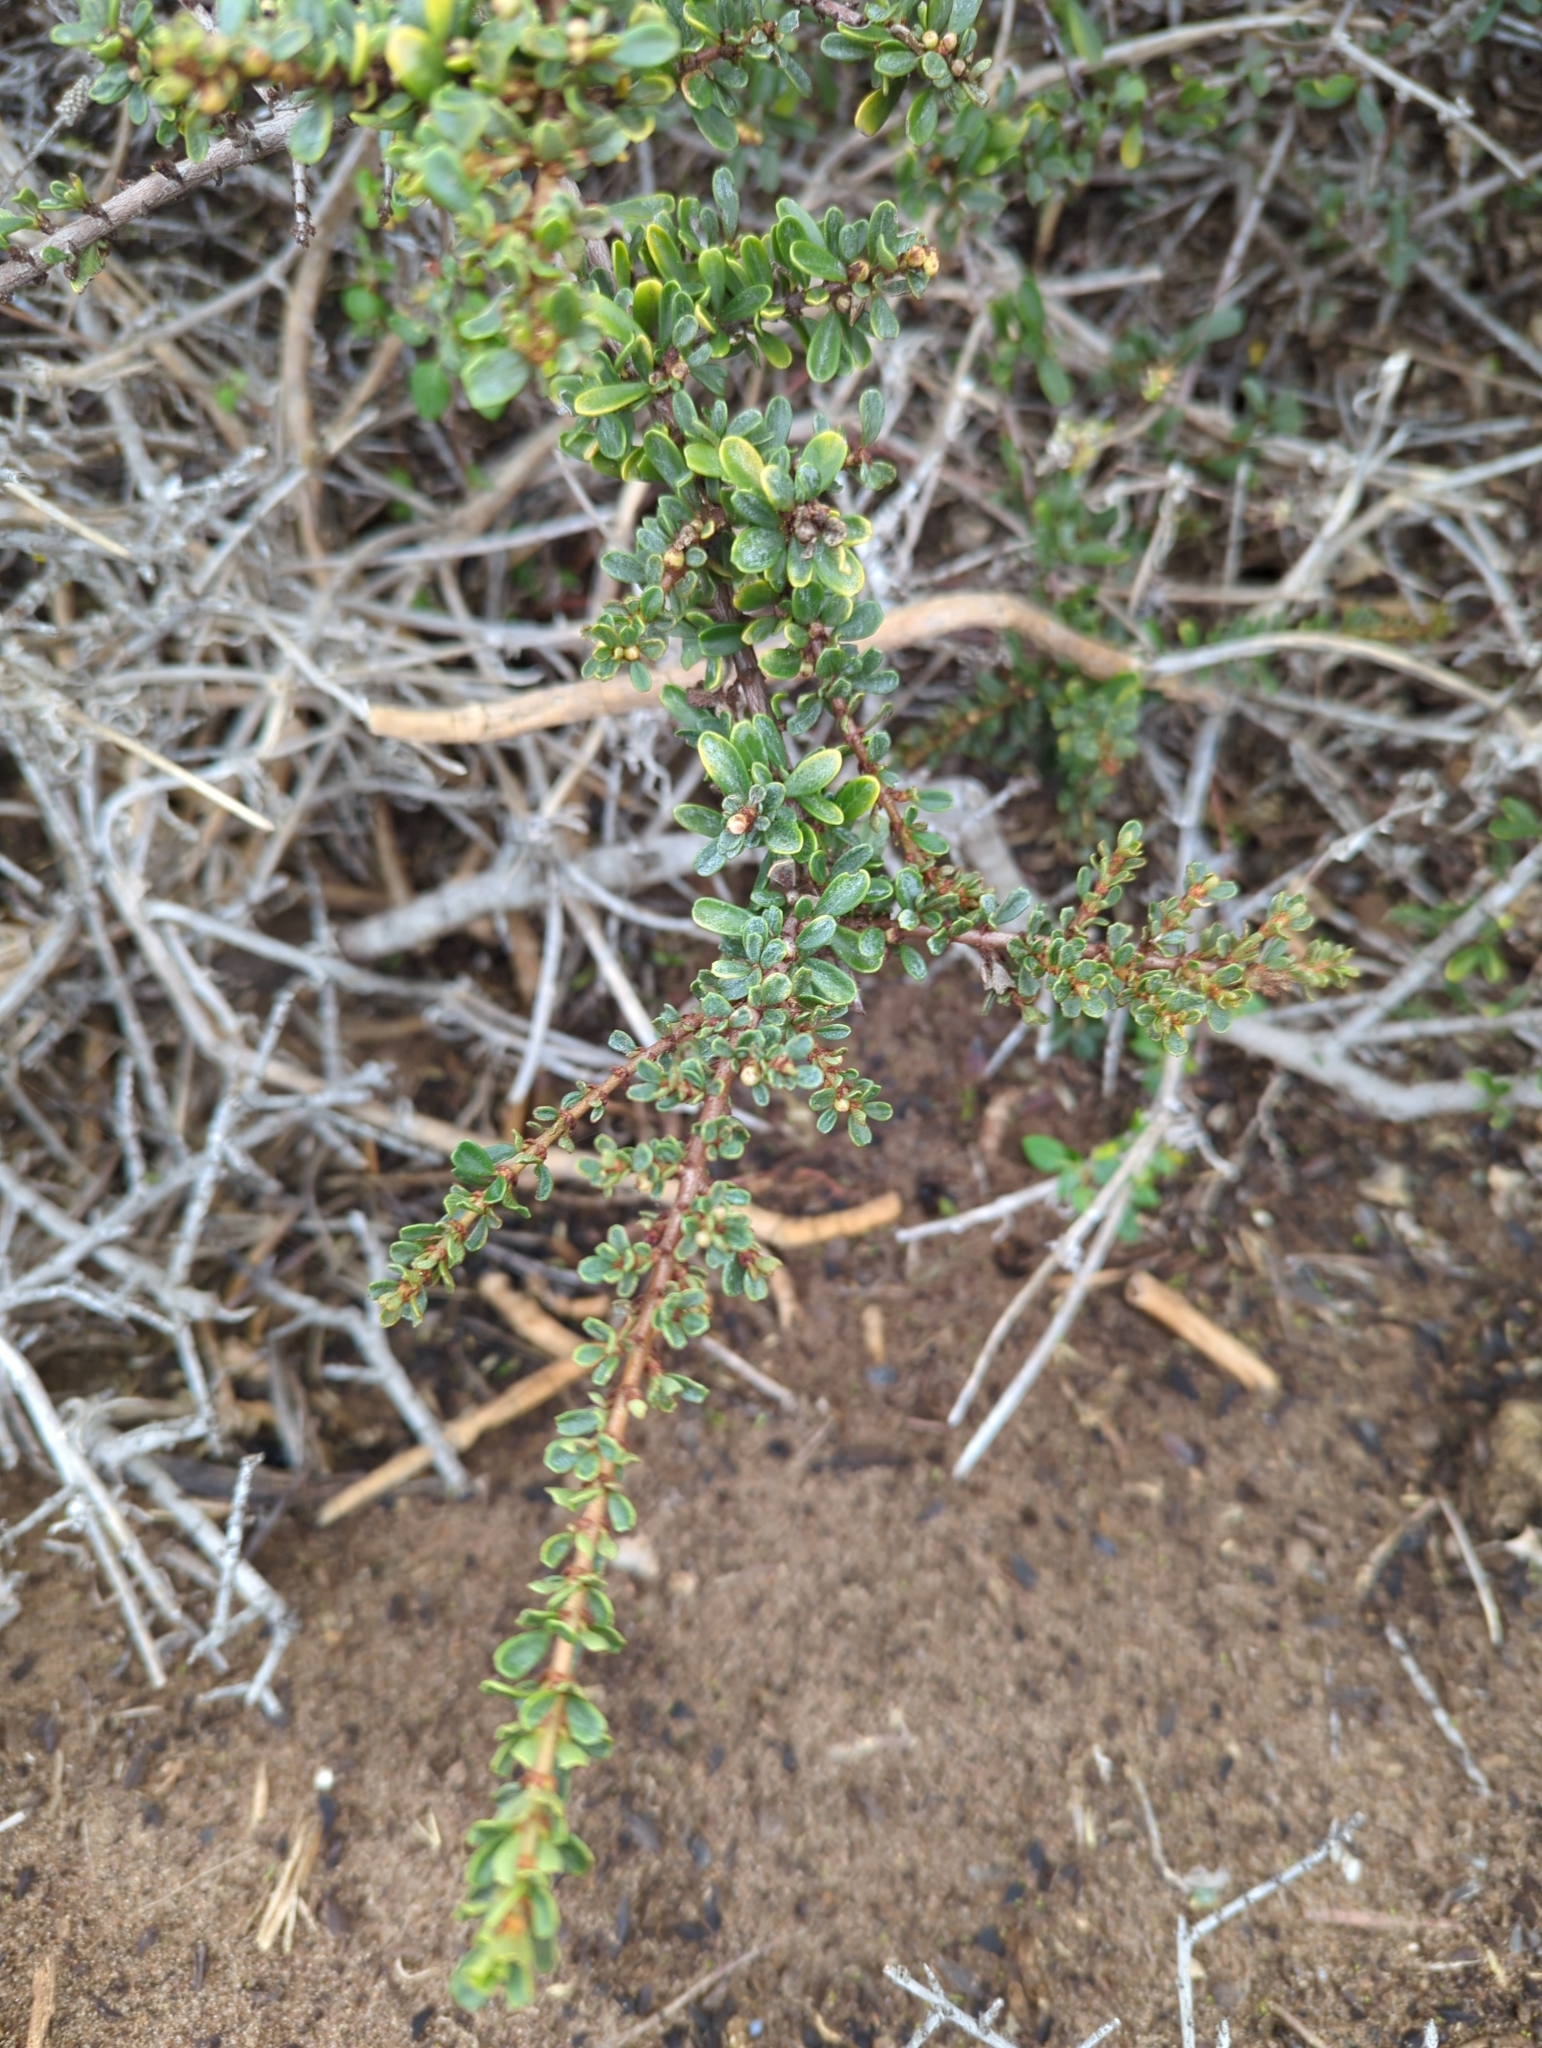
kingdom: Plantae
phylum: Tracheophyta
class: Magnoliopsida
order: Rosales
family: Rhamnaceae
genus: Ceanothus
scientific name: Ceanothus cuneatus
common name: Cuneate ceanothus
